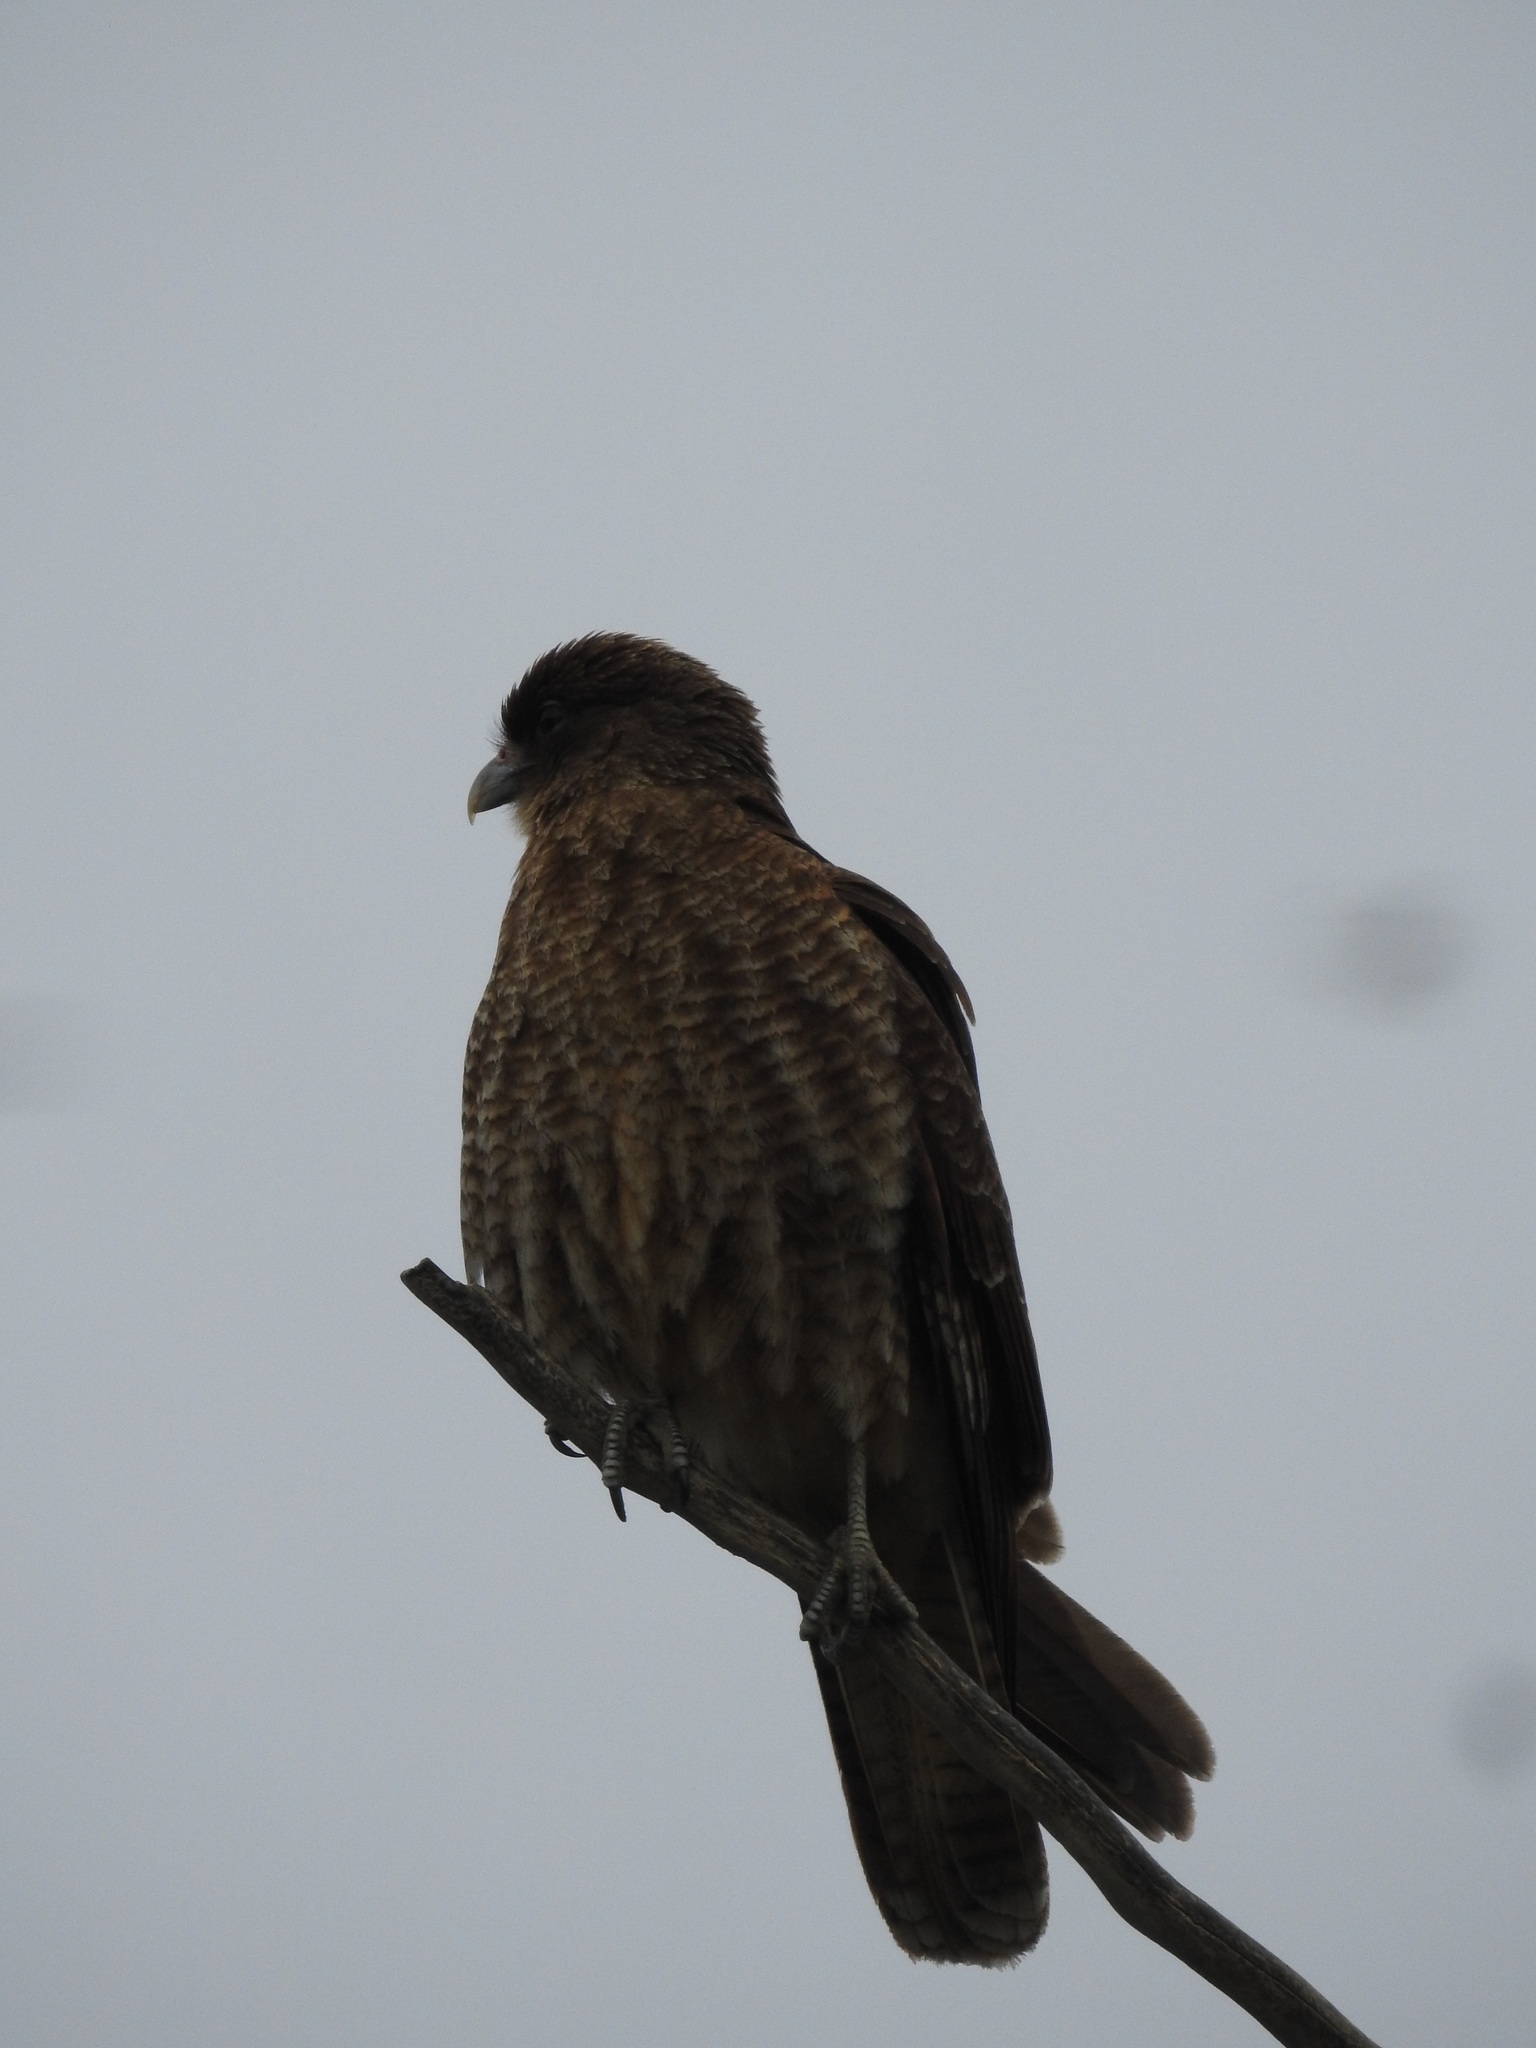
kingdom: Animalia
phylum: Chordata
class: Aves
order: Falconiformes
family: Falconidae
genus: Daptrius
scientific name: Daptrius
